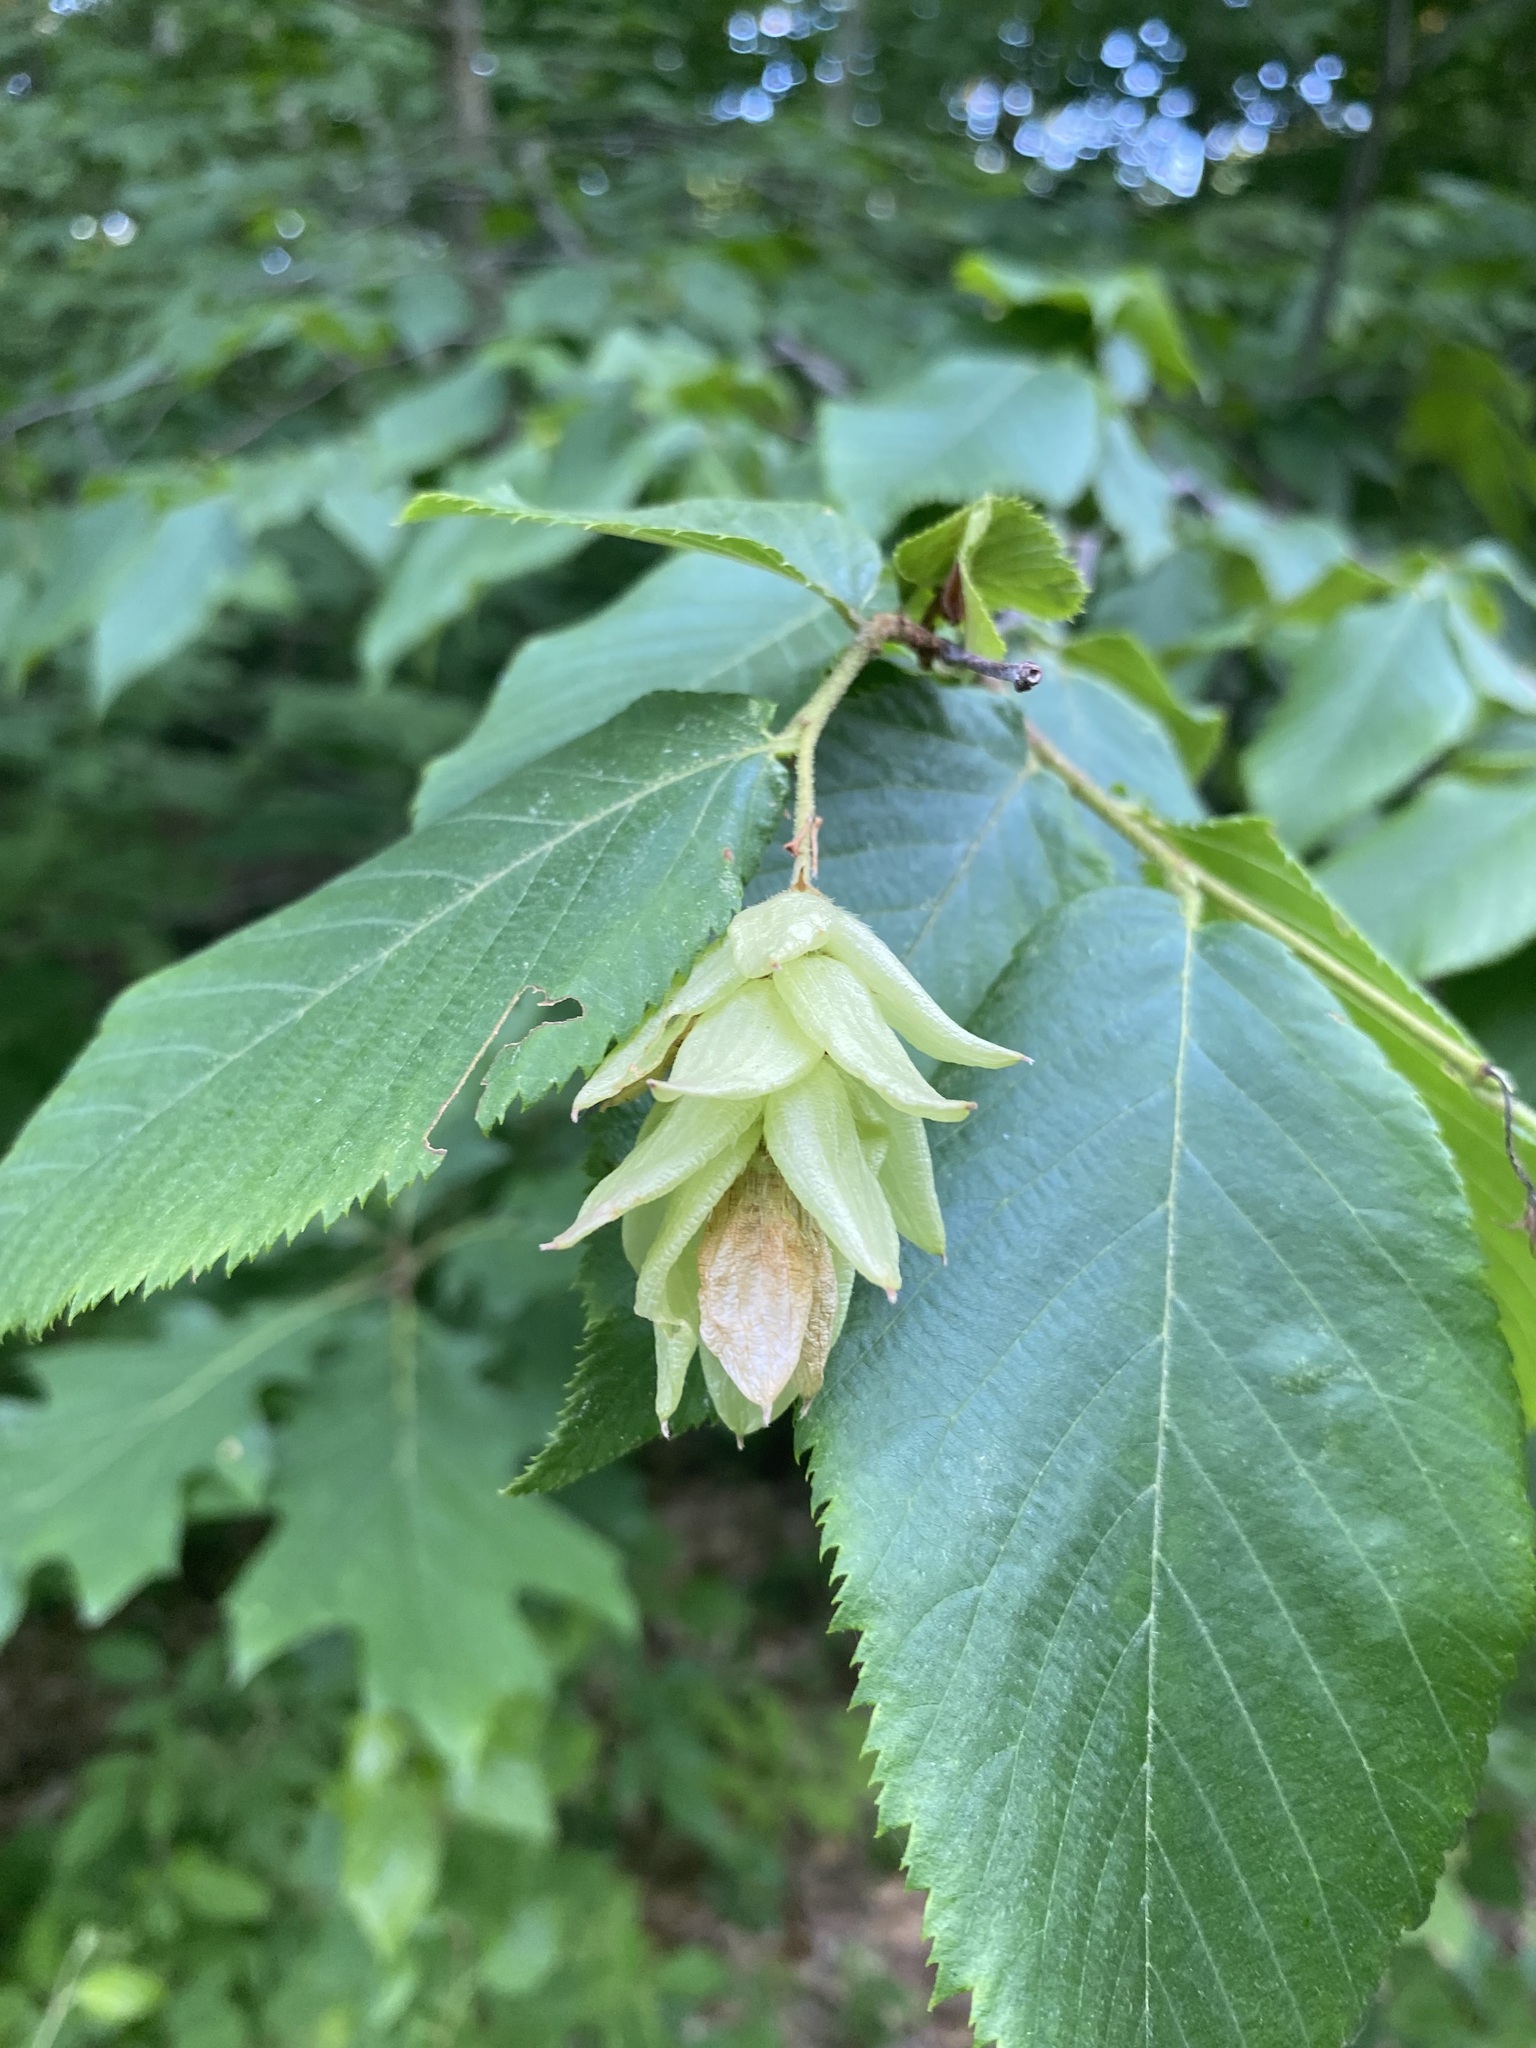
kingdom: Plantae
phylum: Tracheophyta
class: Magnoliopsida
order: Fagales
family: Betulaceae
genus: Ostrya
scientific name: Ostrya virginiana
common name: Ironwood
